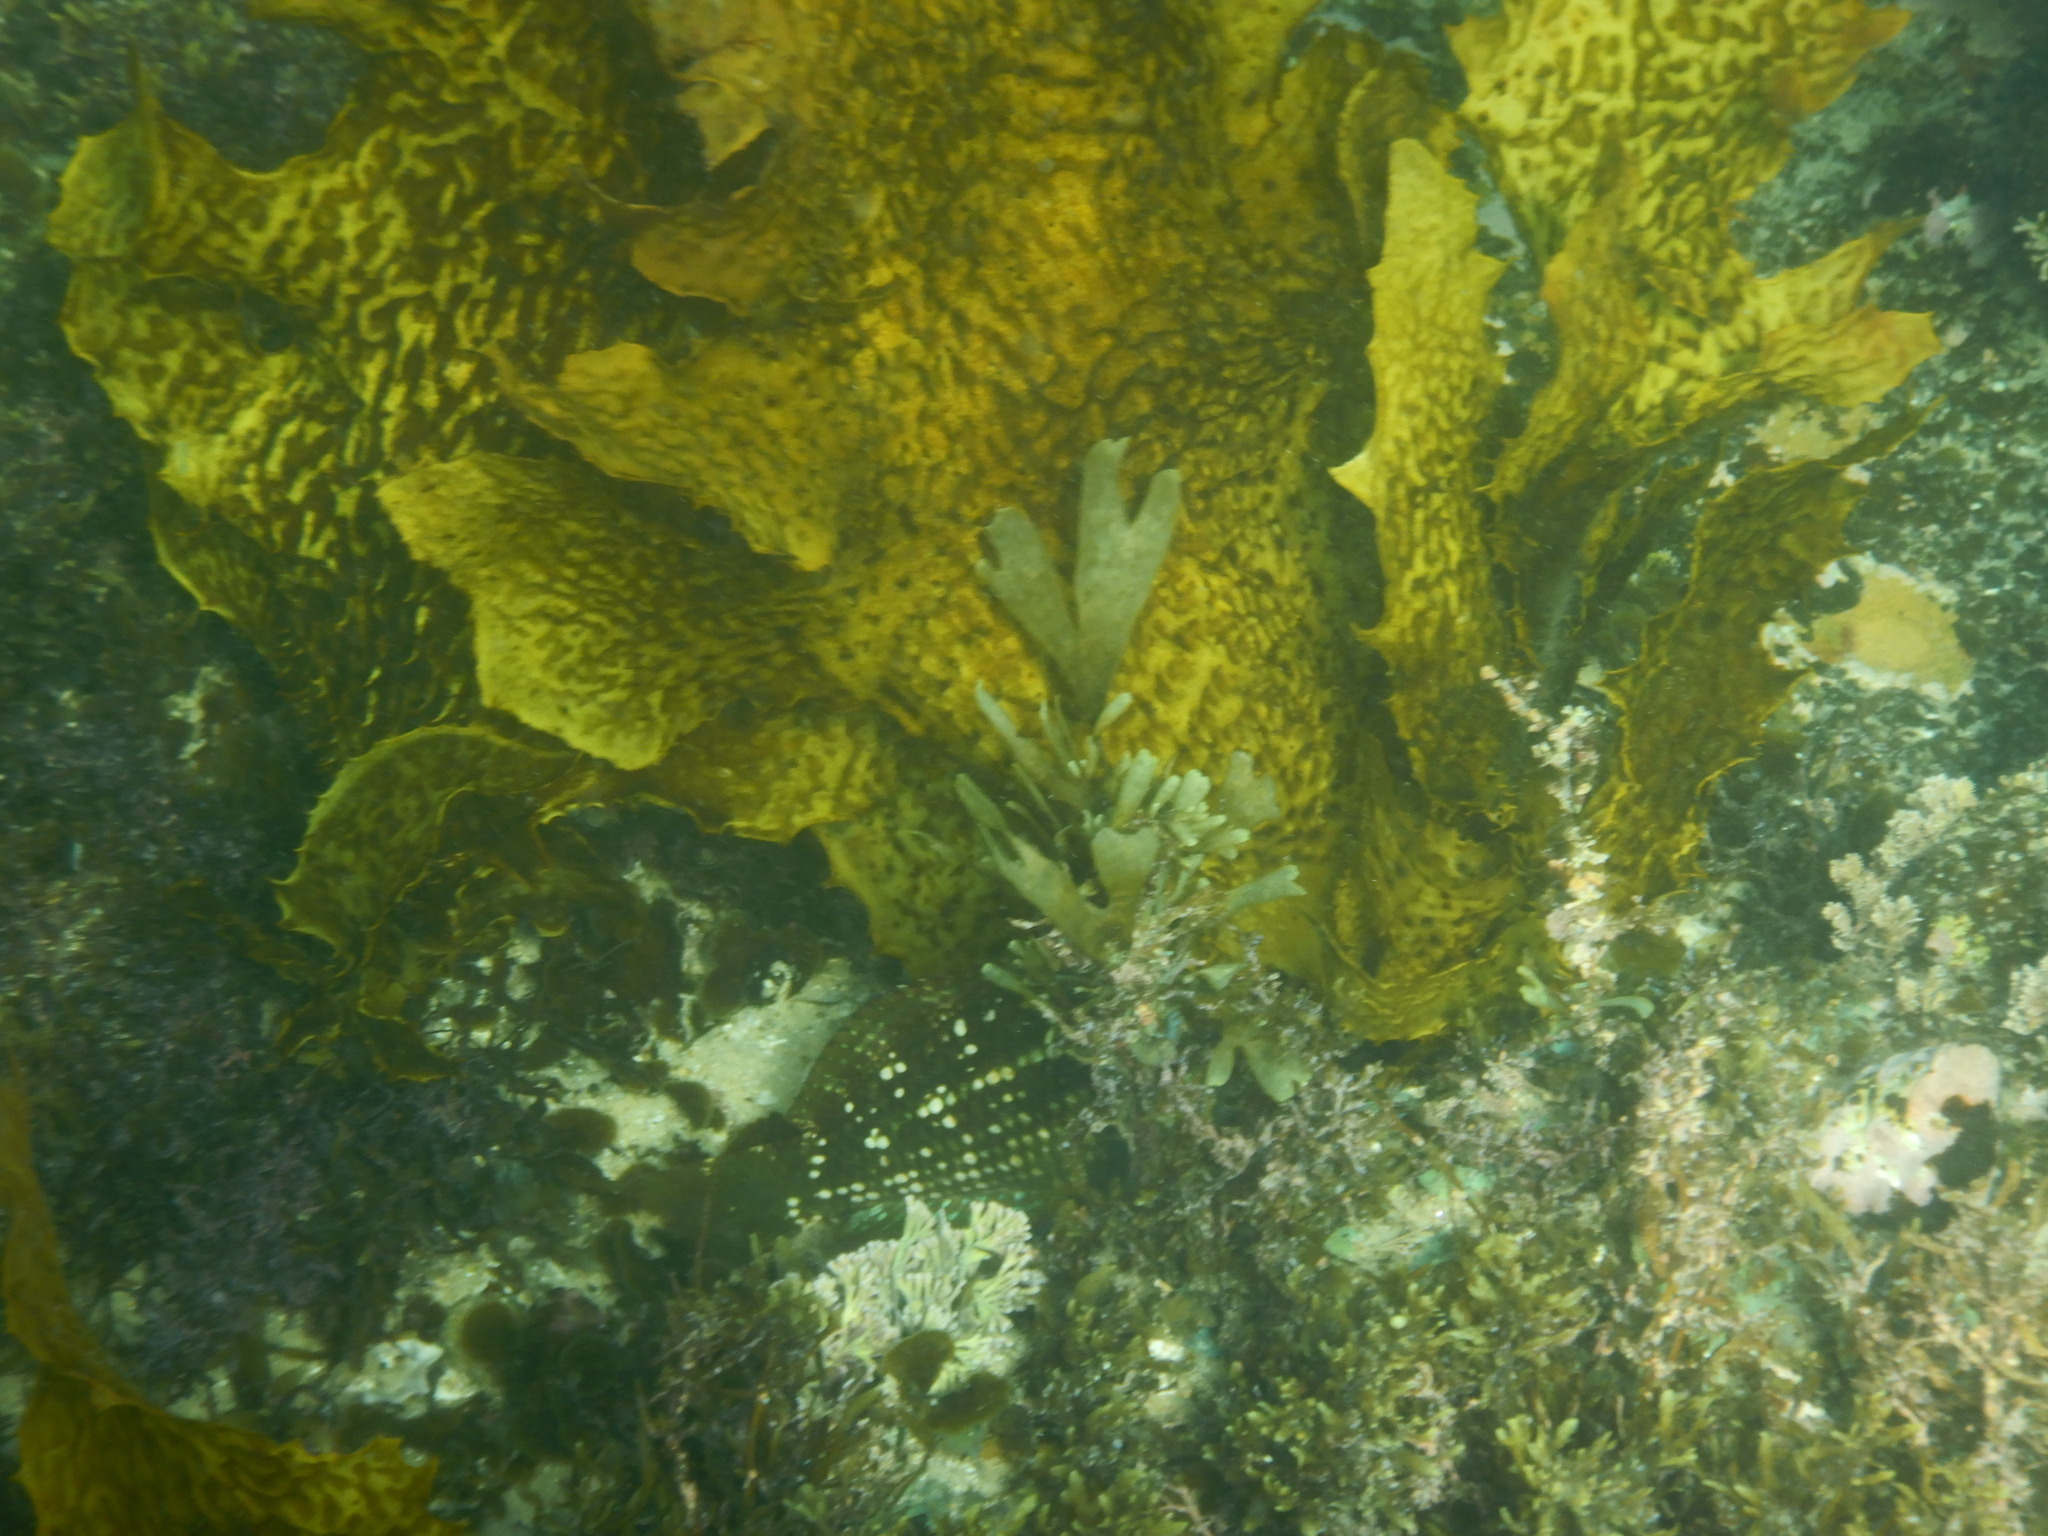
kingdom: Animalia
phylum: Chordata
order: Perciformes
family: Labridae
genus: Notolabrus
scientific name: Notolabrus gymnogenis
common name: Crimson banded wrasse
